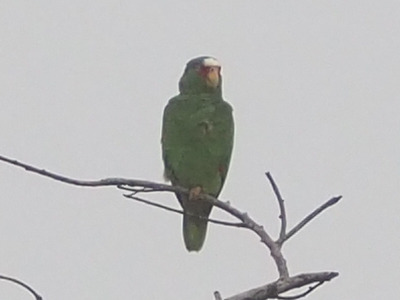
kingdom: Animalia
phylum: Chordata
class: Aves
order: Psittaciformes
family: Psittacidae
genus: Amazona
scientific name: Amazona albifrons
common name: White-fronted amazon
